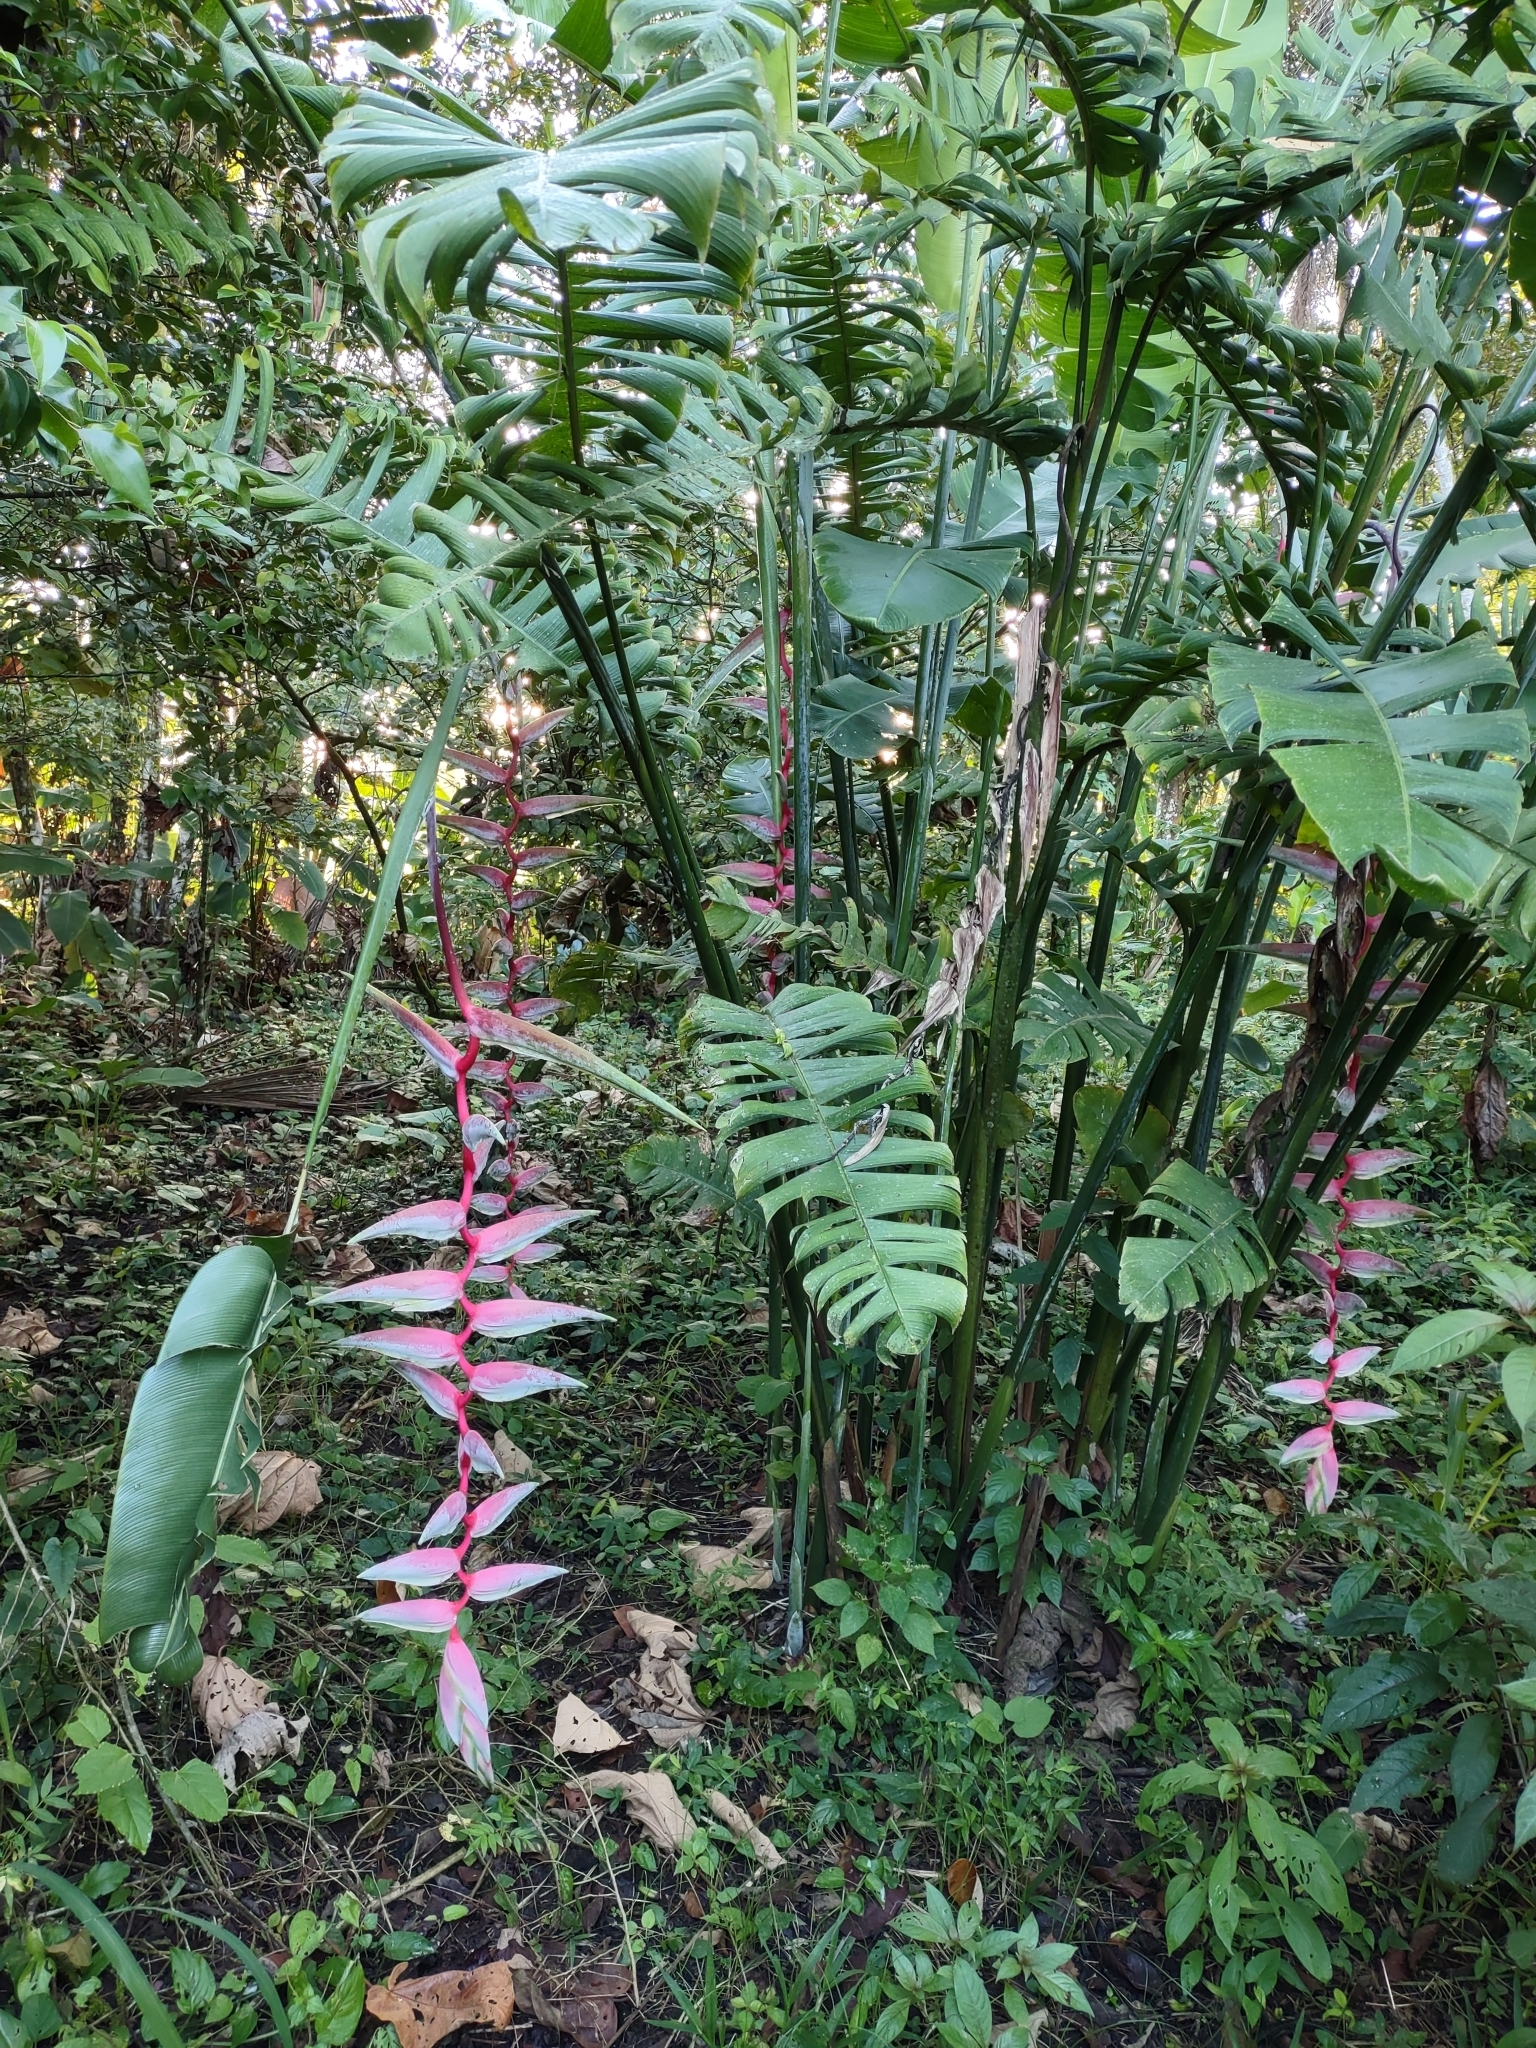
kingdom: Plantae
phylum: Tracheophyta
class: Liliopsida
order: Zingiberales
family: Heliconiaceae
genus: Heliconia
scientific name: Heliconia chartacea
